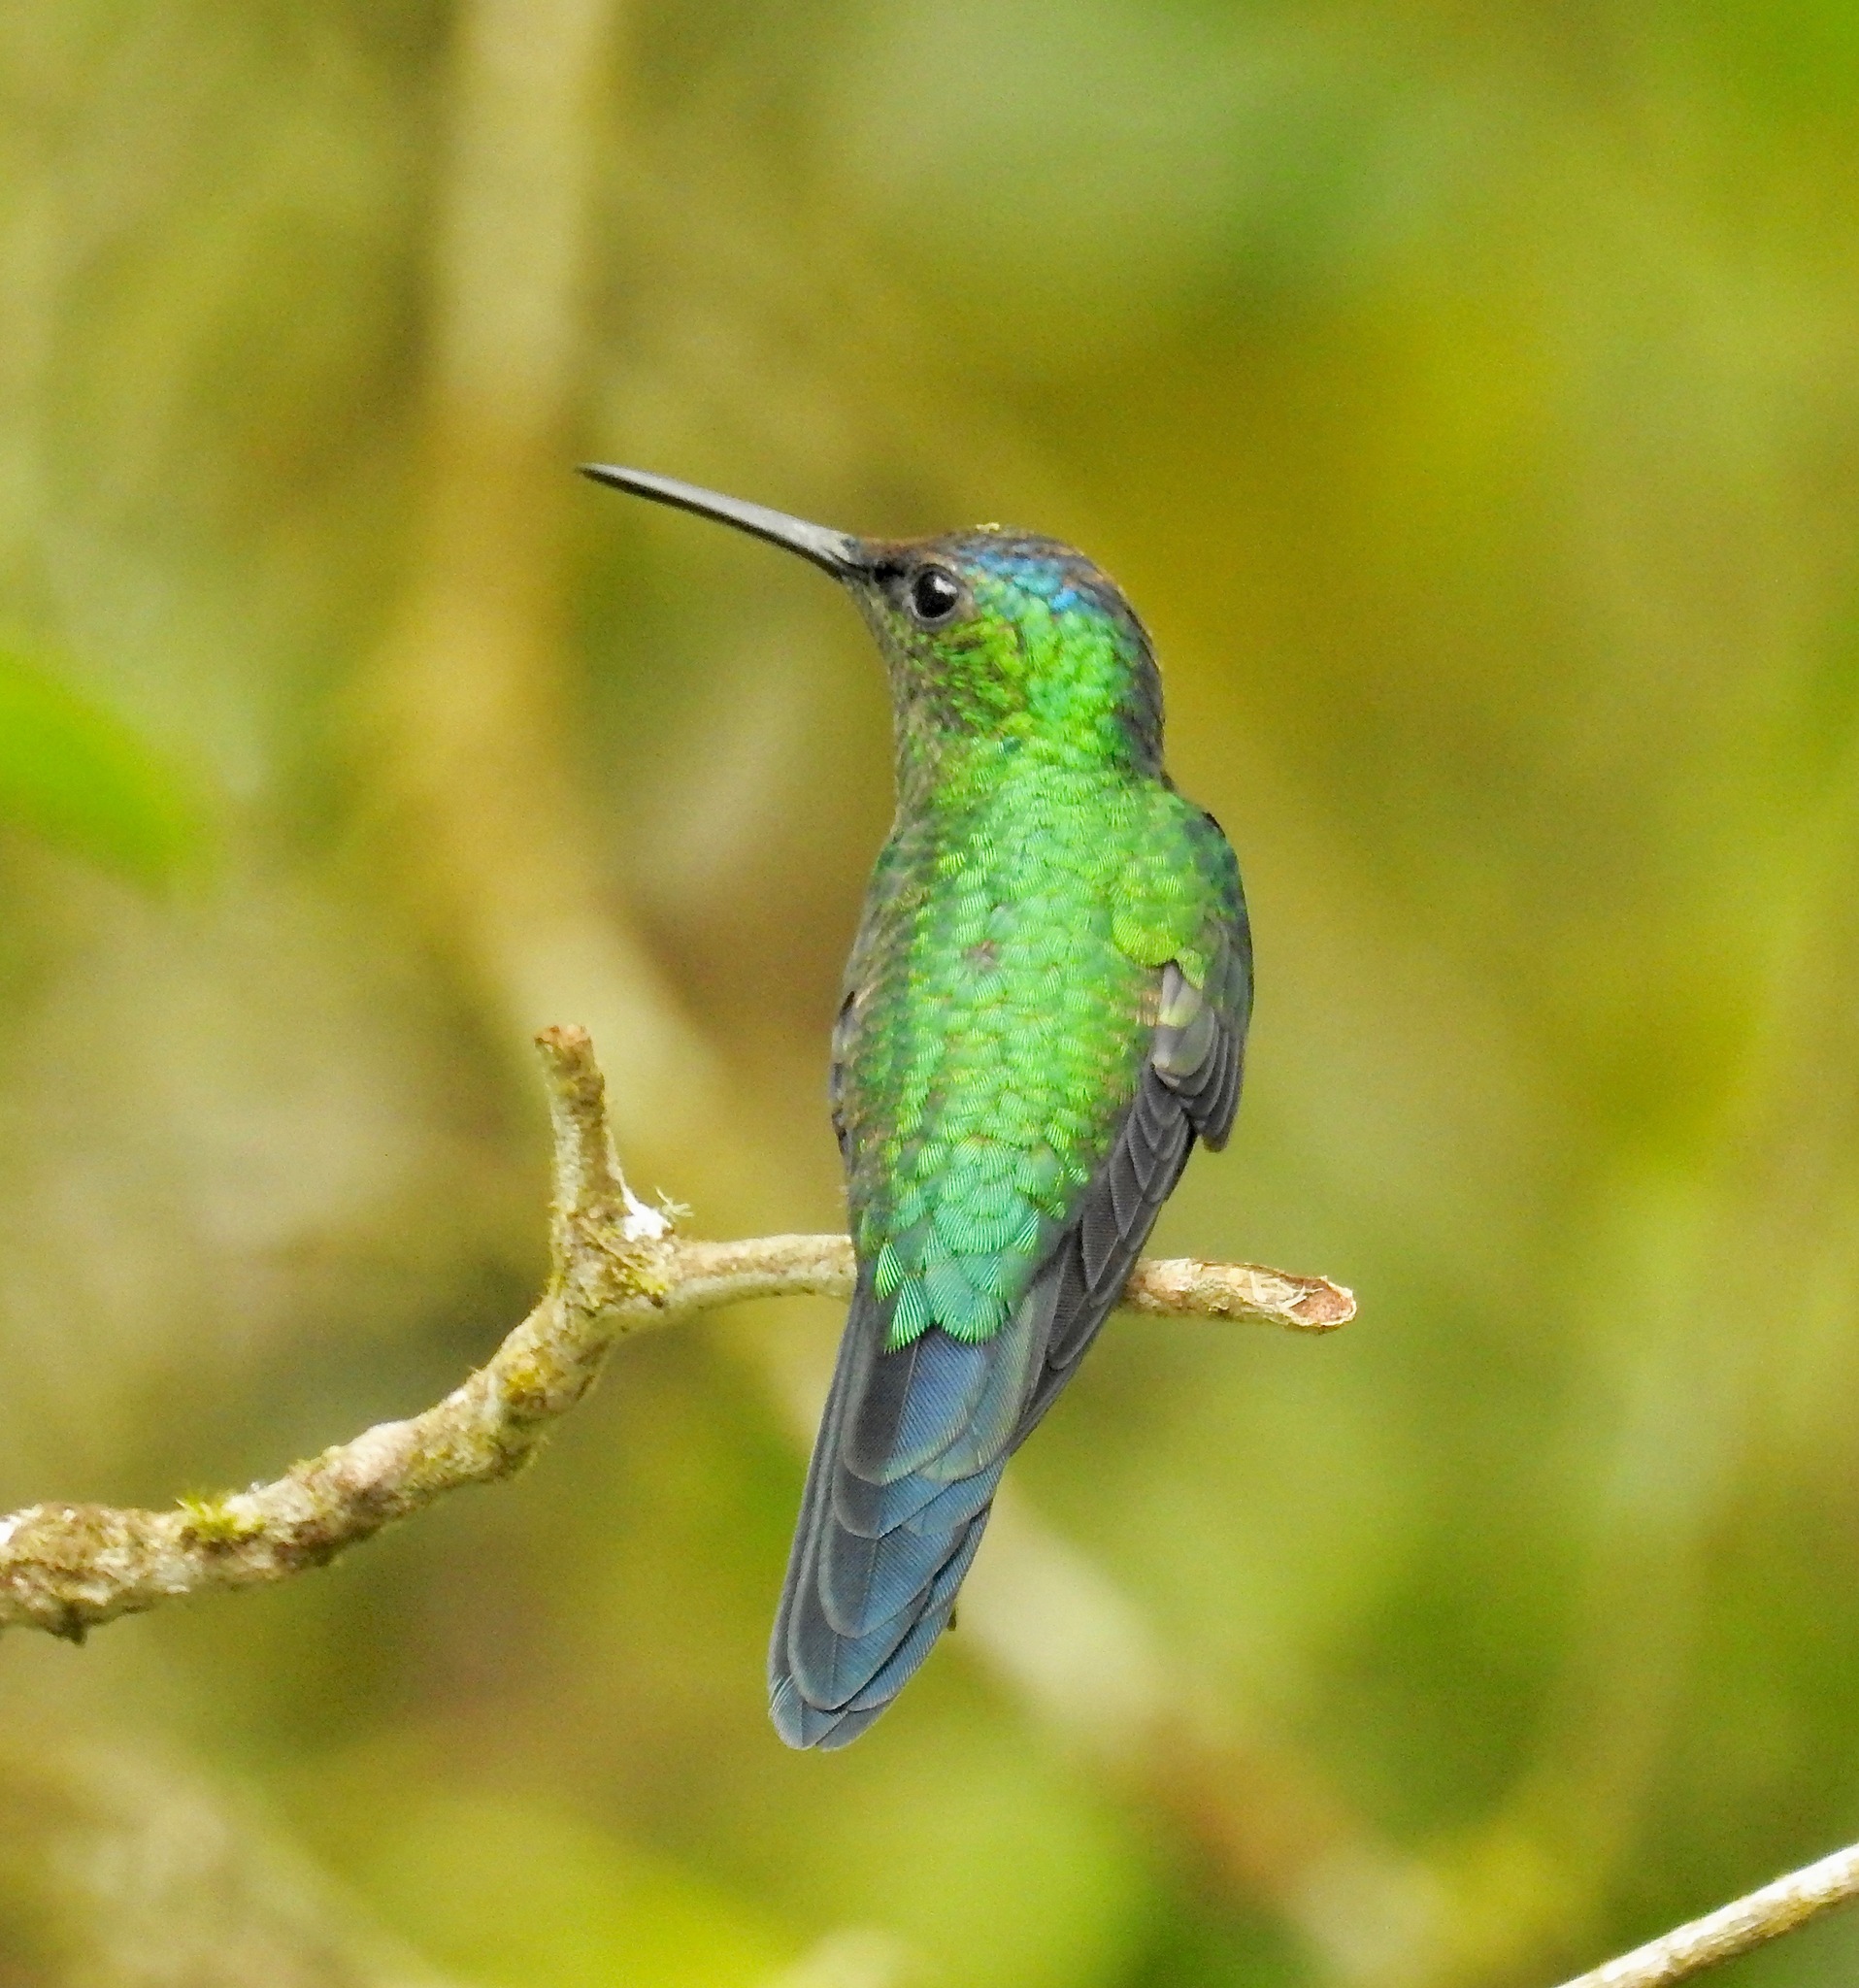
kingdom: Animalia
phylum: Chordata
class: Aves
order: Apodiformes
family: Trochilidae
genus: Thalurania
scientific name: Thalurania glaucopis
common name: Violet-capped woodnymph
